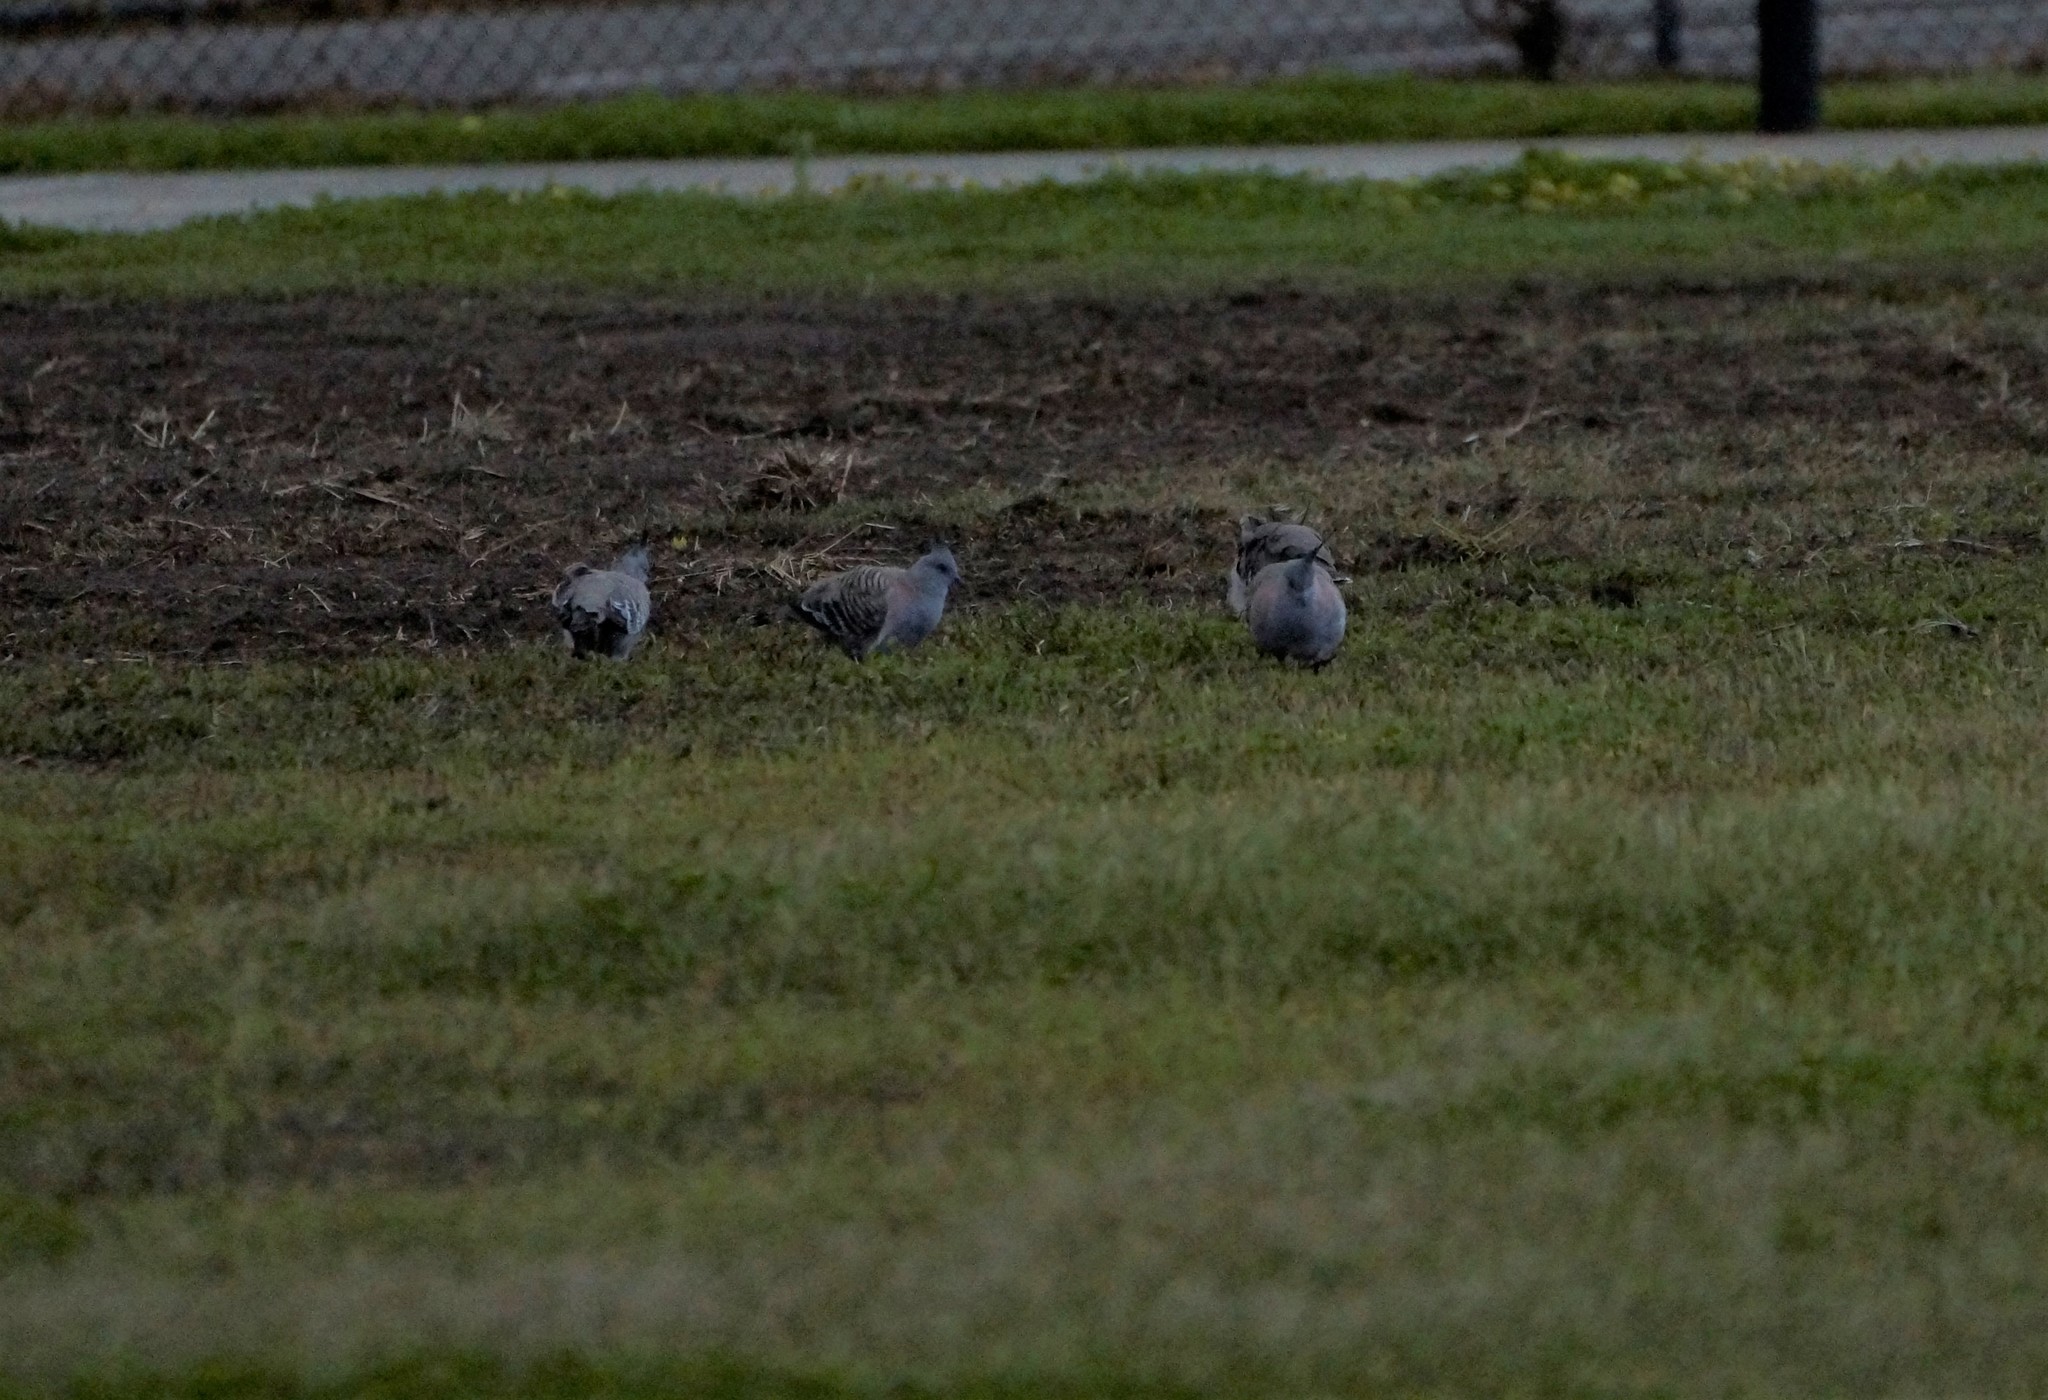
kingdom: Animalia
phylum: Chordata
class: Aves
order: Columbiformes
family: Columbidae
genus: Ocyphaps
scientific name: Ocyphaps lophotes
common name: Crested pigeon
